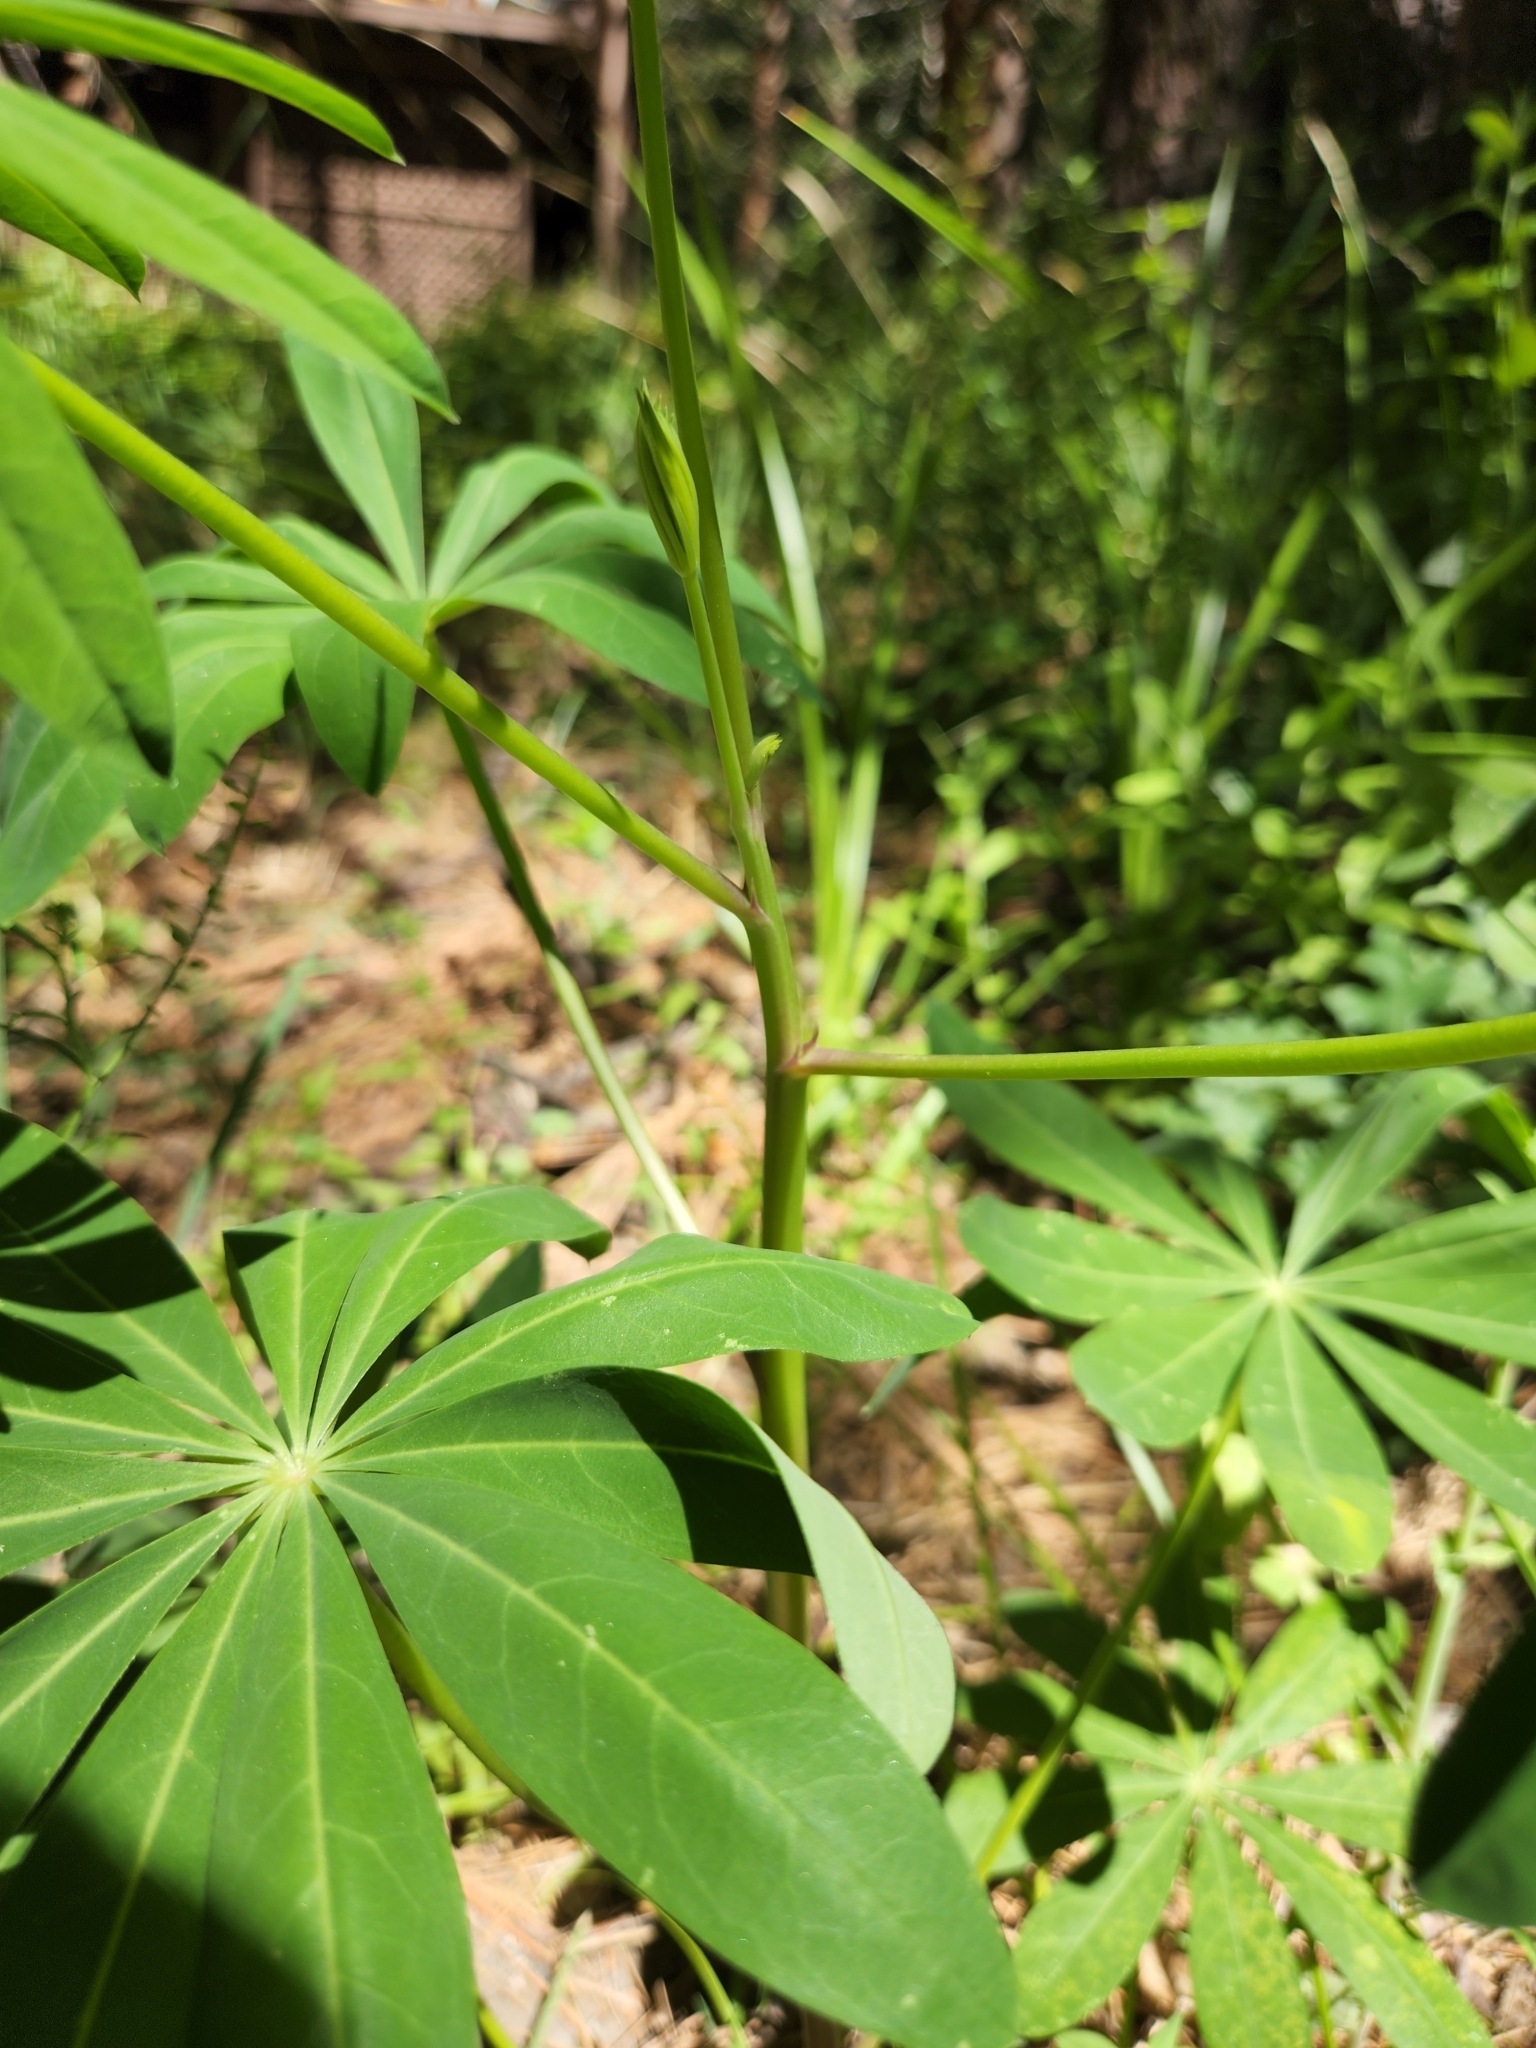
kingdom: Plantae
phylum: Tracheophyta
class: Magnoliopsida
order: Fabales
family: Fabaceae
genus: Lupinus
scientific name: Lupinus latifolius
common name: Broad-leaved lupine
